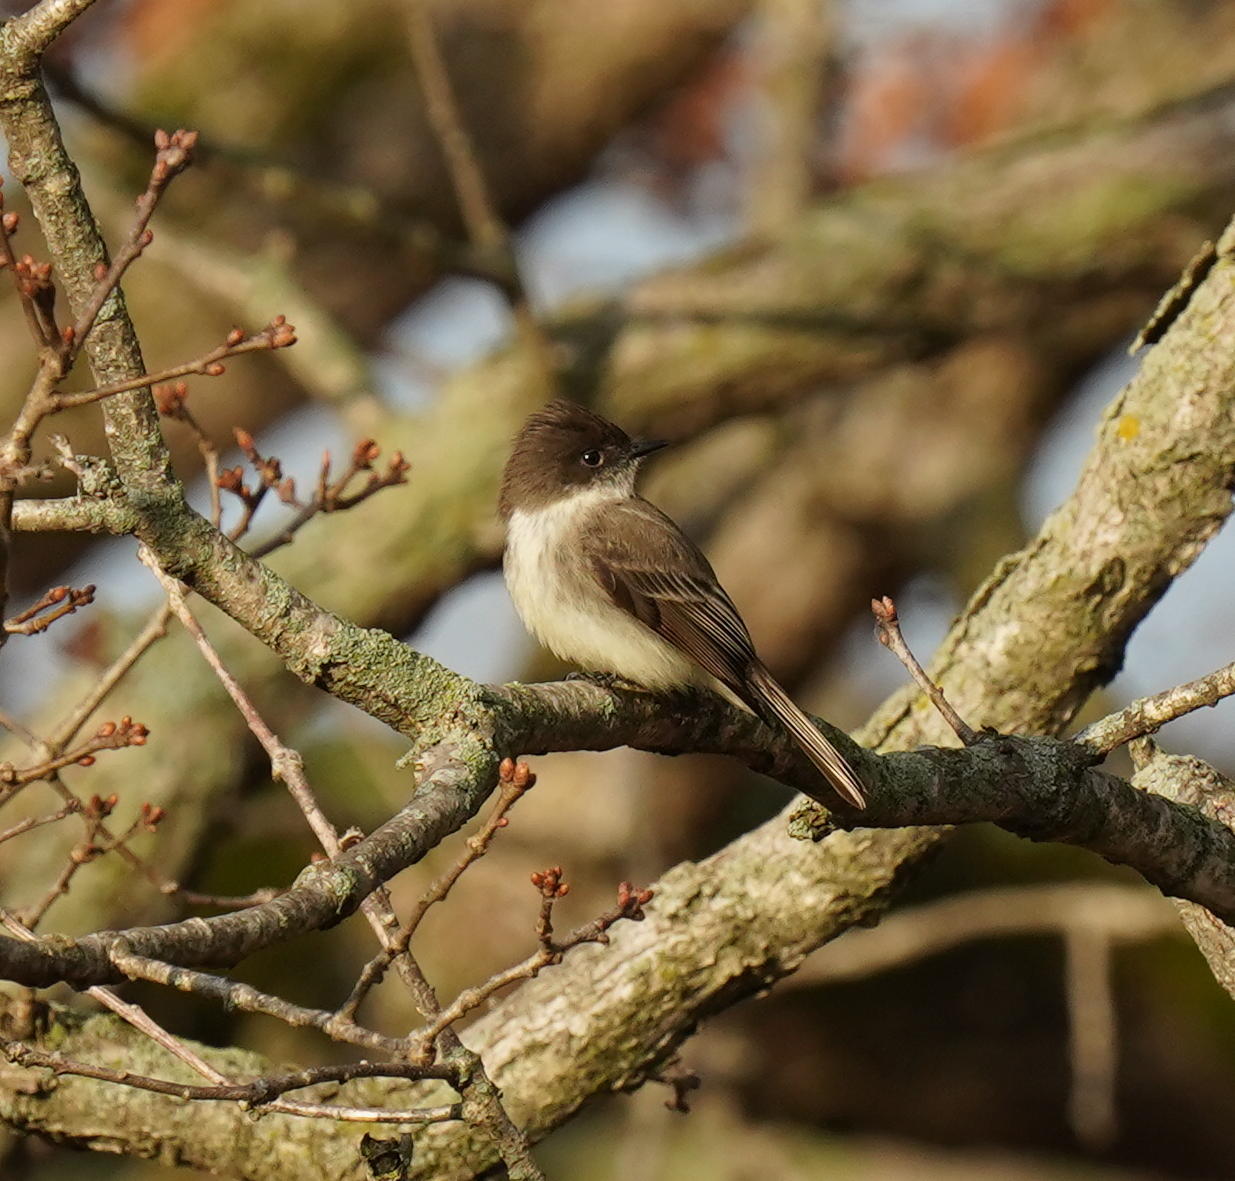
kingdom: Animalia
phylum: Chordata
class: Aves
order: Passeriformes
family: Tyrannidae
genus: Sayornis
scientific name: Sayornis phoebe
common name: Eastern phoebe
